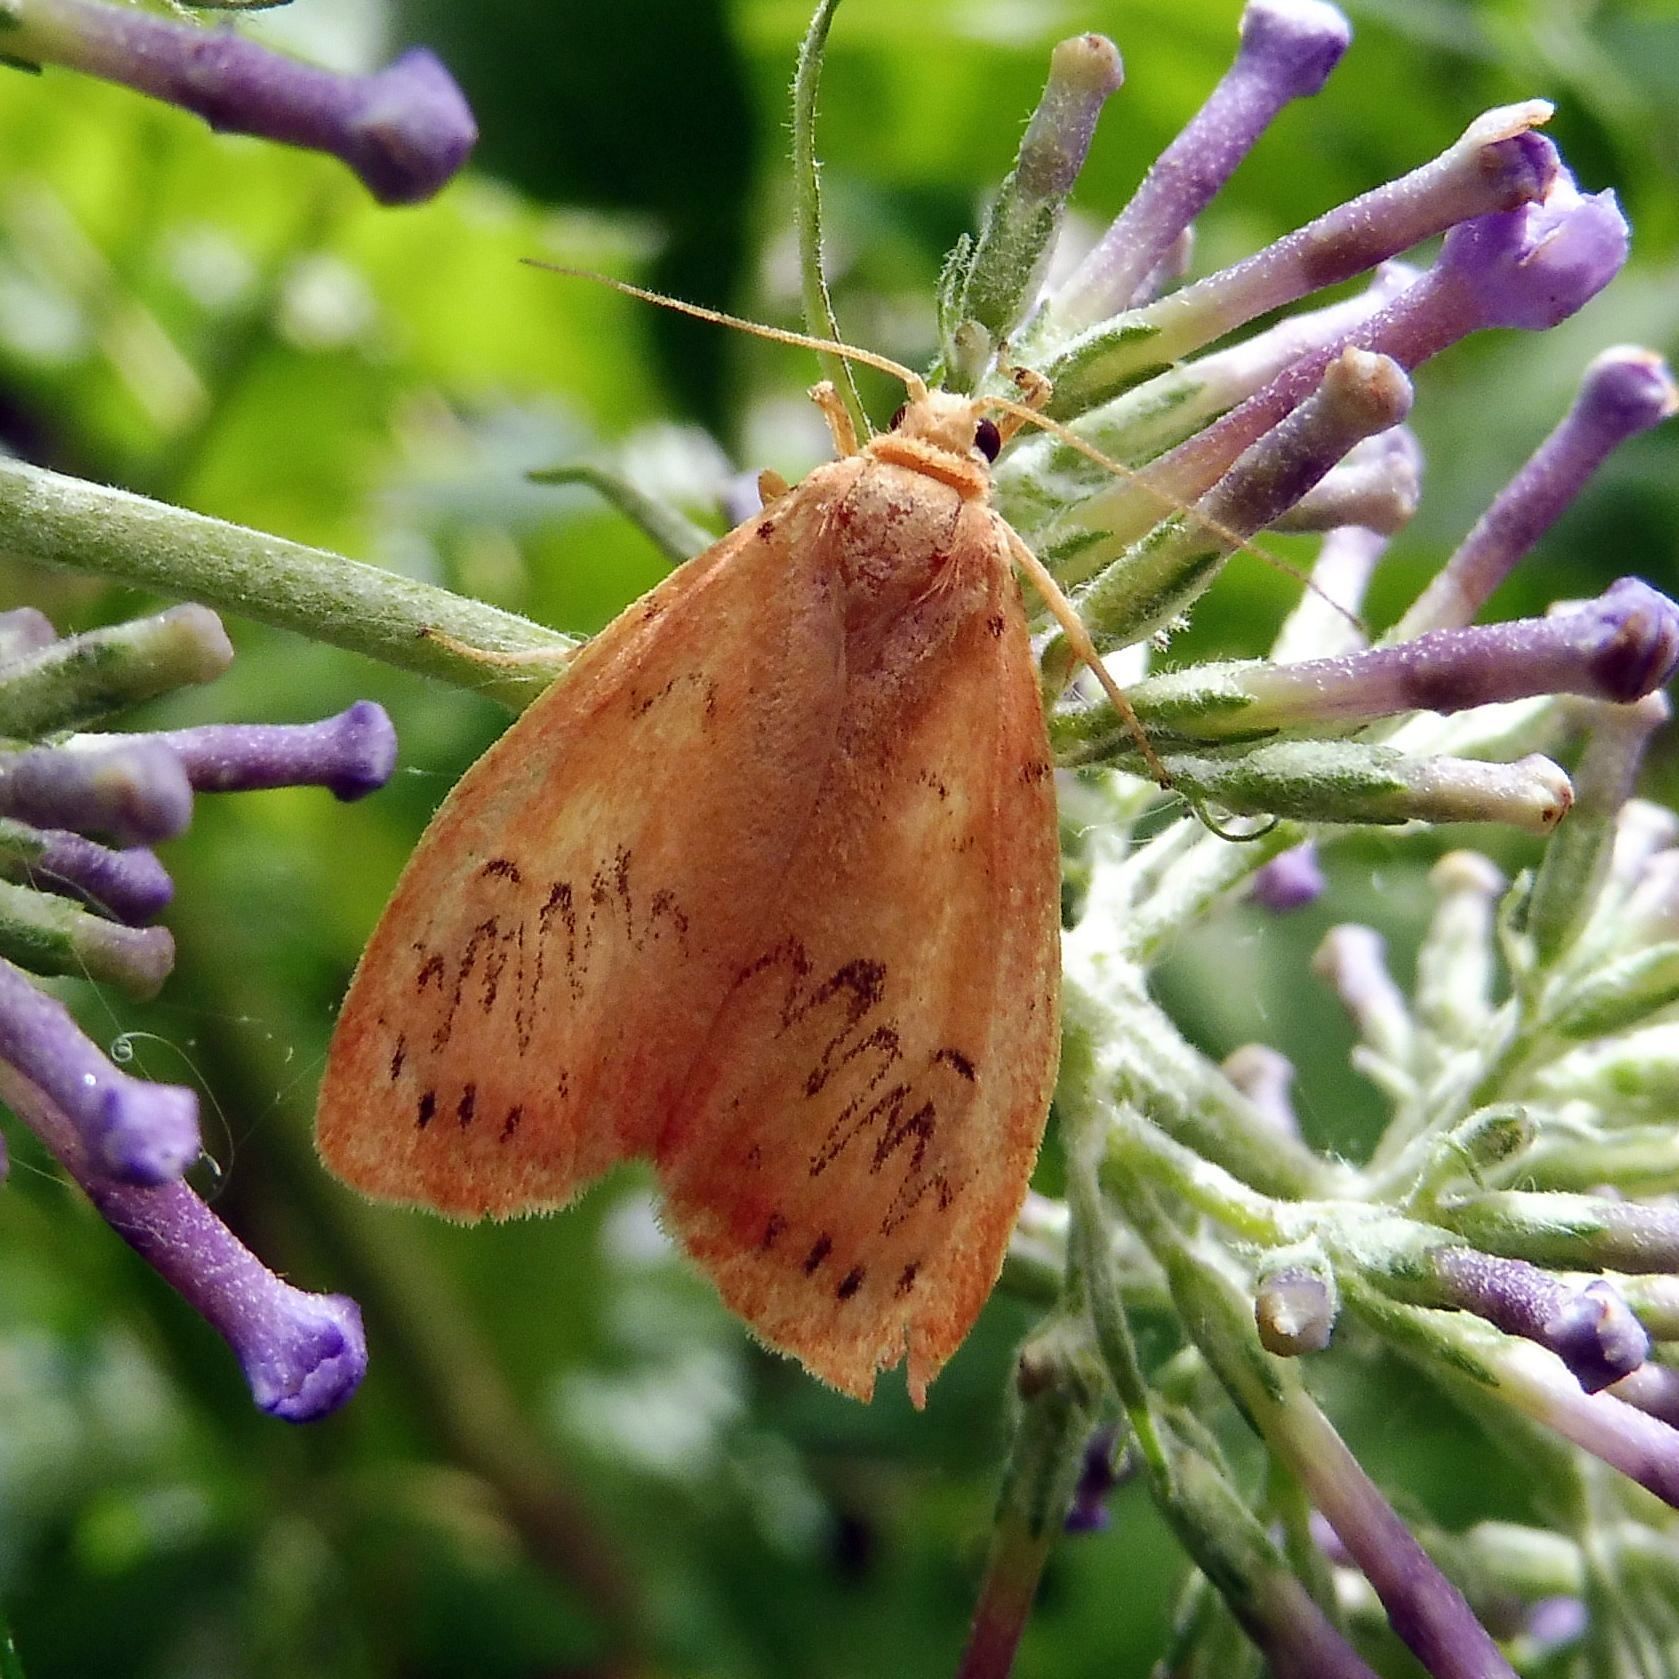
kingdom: Animalia
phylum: Arthropoda
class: Insecta
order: Lepidoptera
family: Erebidae
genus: Miltochrista
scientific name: Miltochrista miniata
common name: Rosy footman
